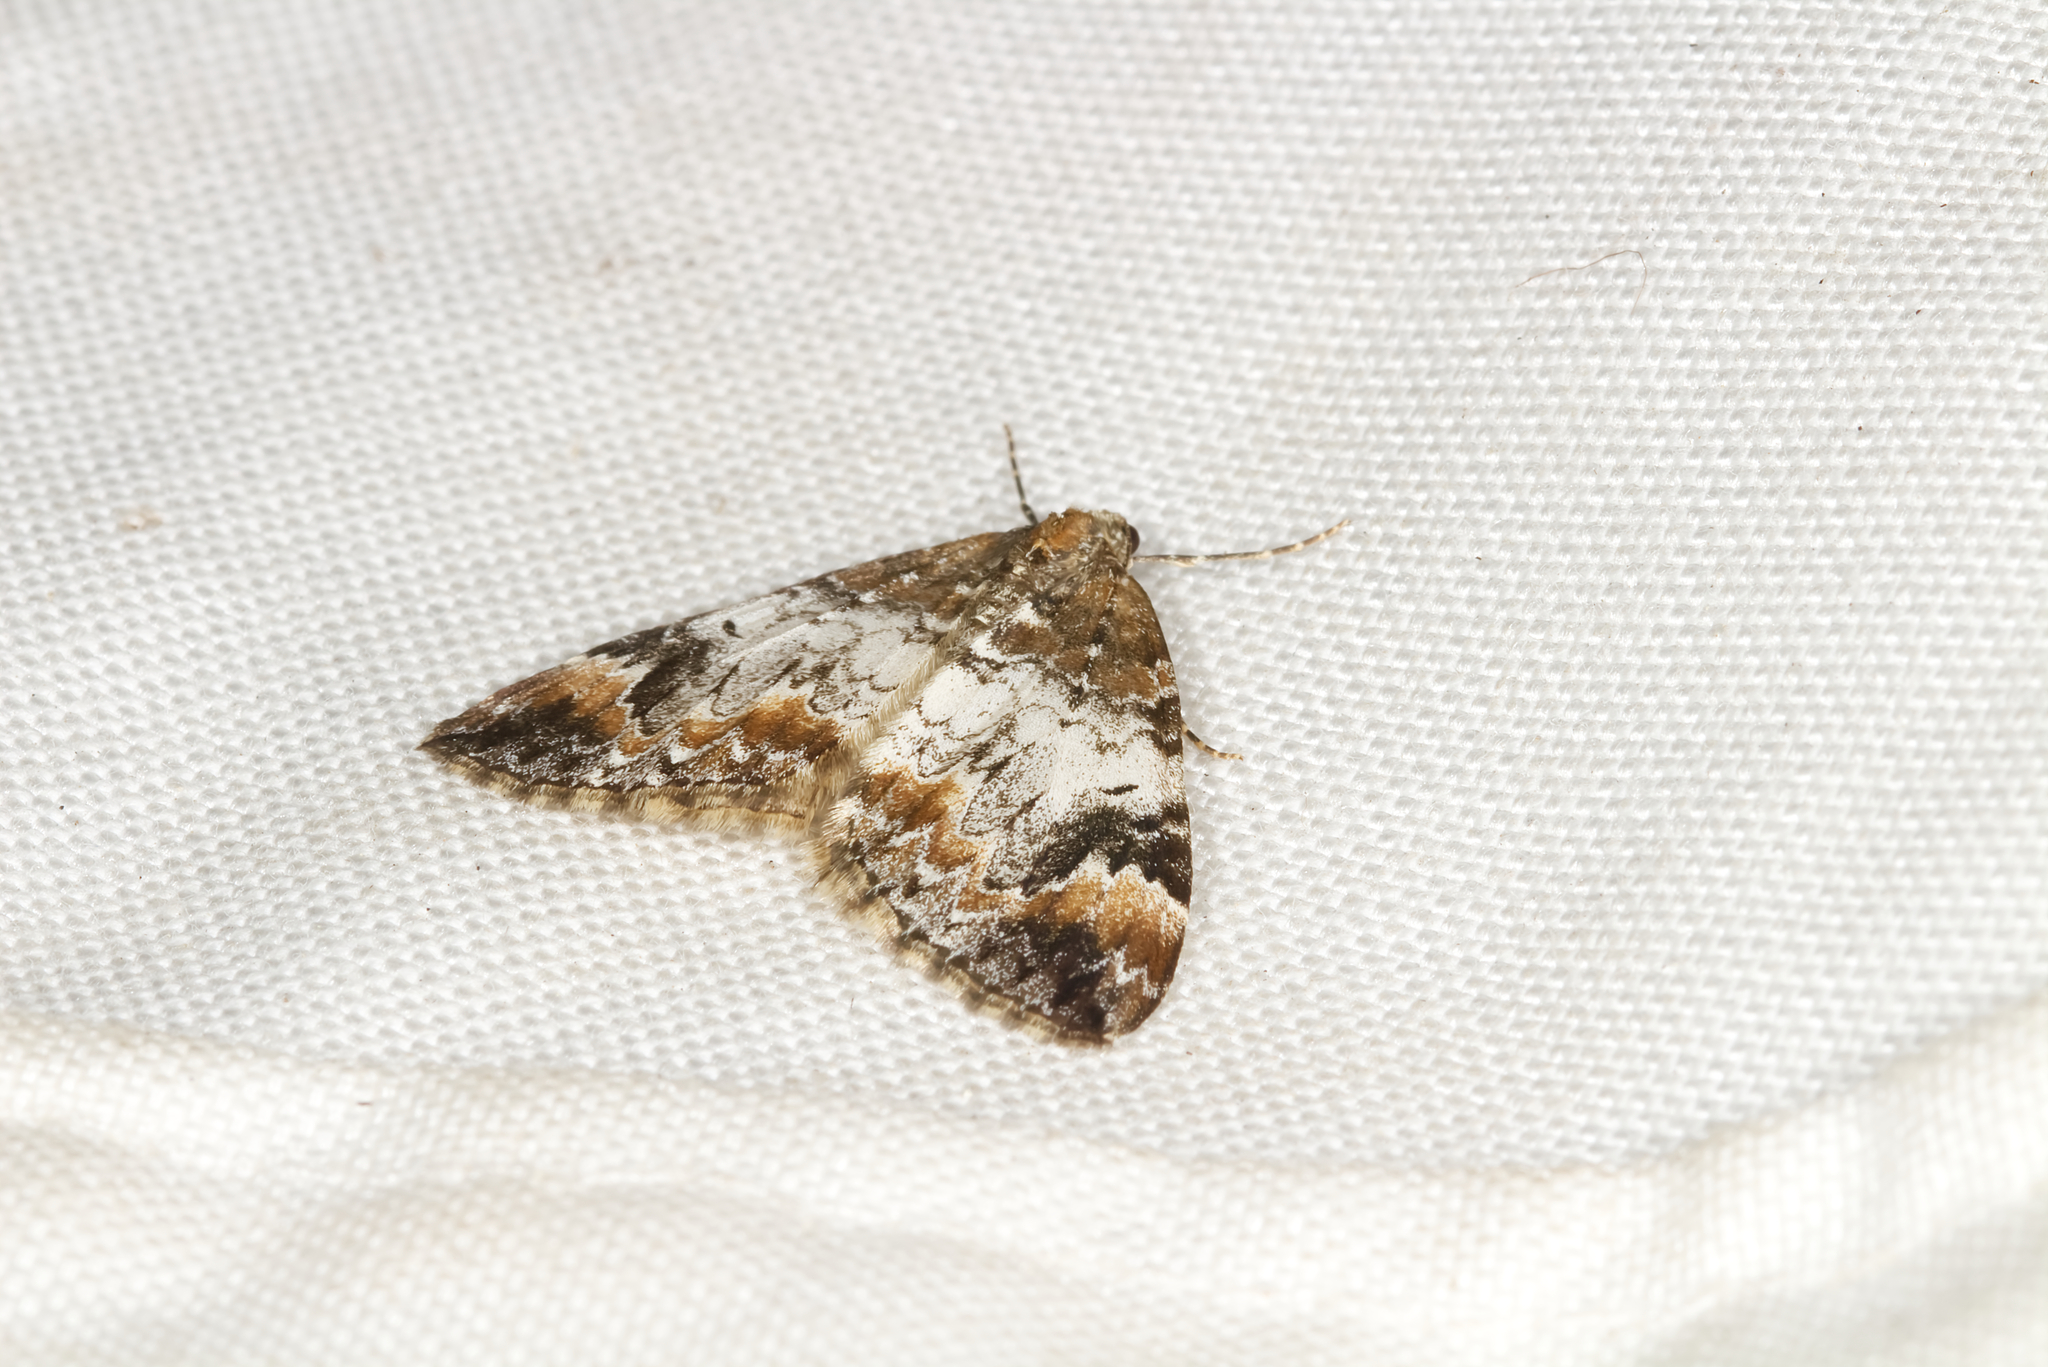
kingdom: Animalia
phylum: Arthropoda
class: Insecta
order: Lepidoptera
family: Geometridae
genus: Dysstroma
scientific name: Dysstroma truncata
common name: Common marbled carpet
